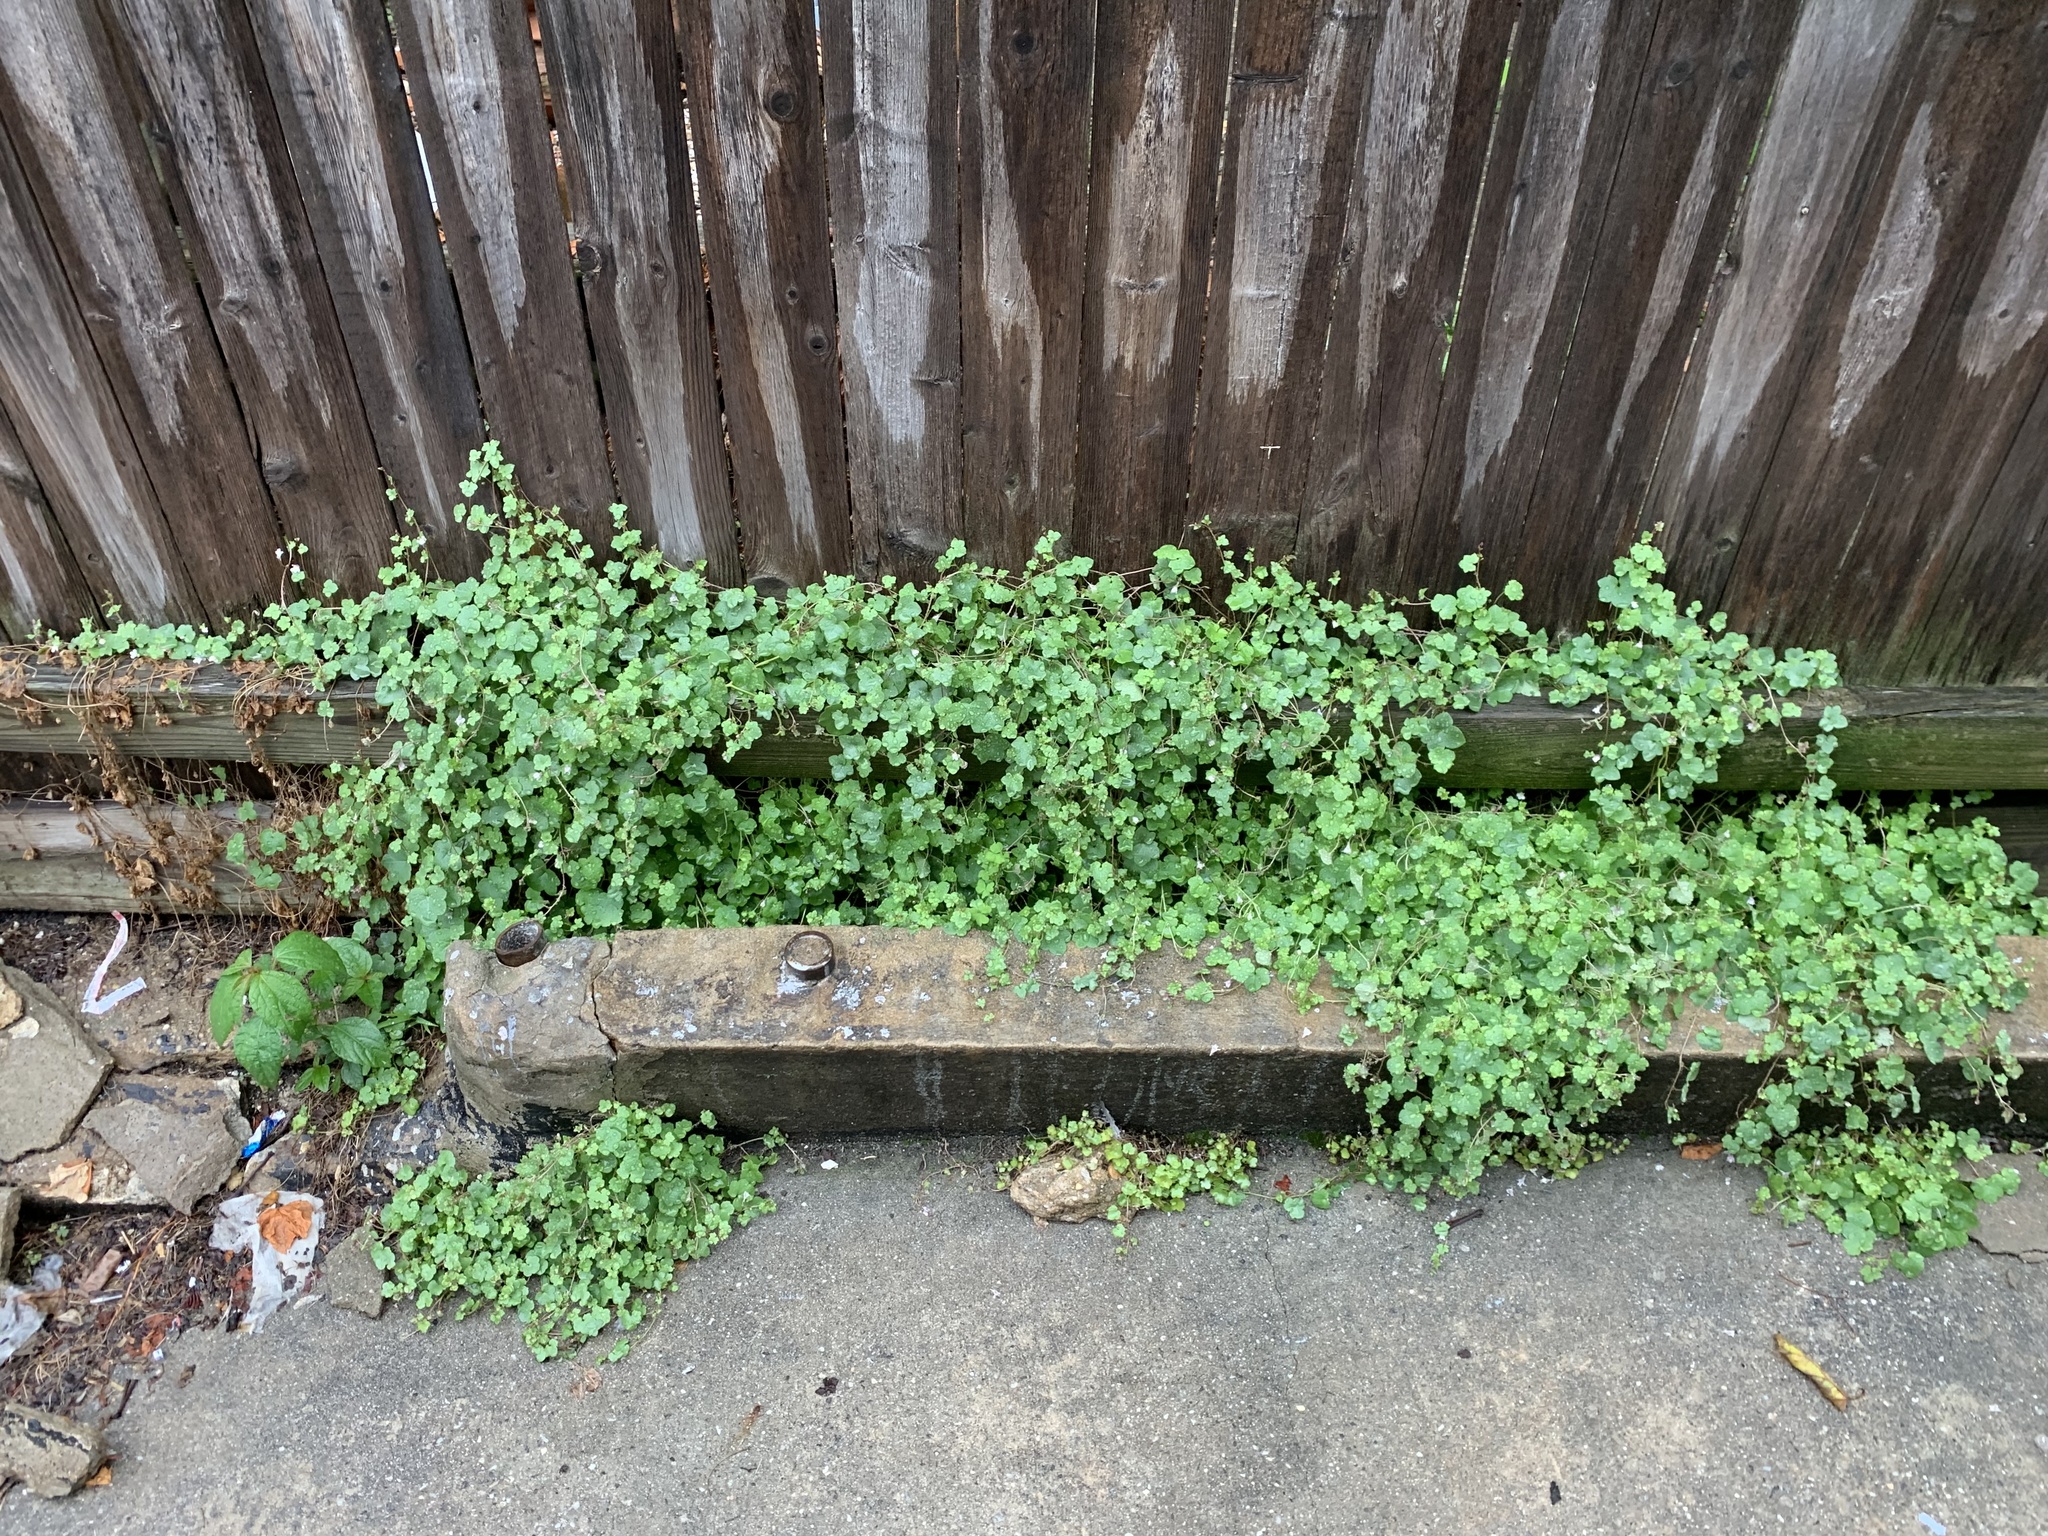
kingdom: Plantae
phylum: Tracheophyta
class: Magnoliopsida
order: Lamiales
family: Plantaginaceae
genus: Cymbalaria
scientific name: Cymbalaria muralis
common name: Ivy-leaved toadflax
